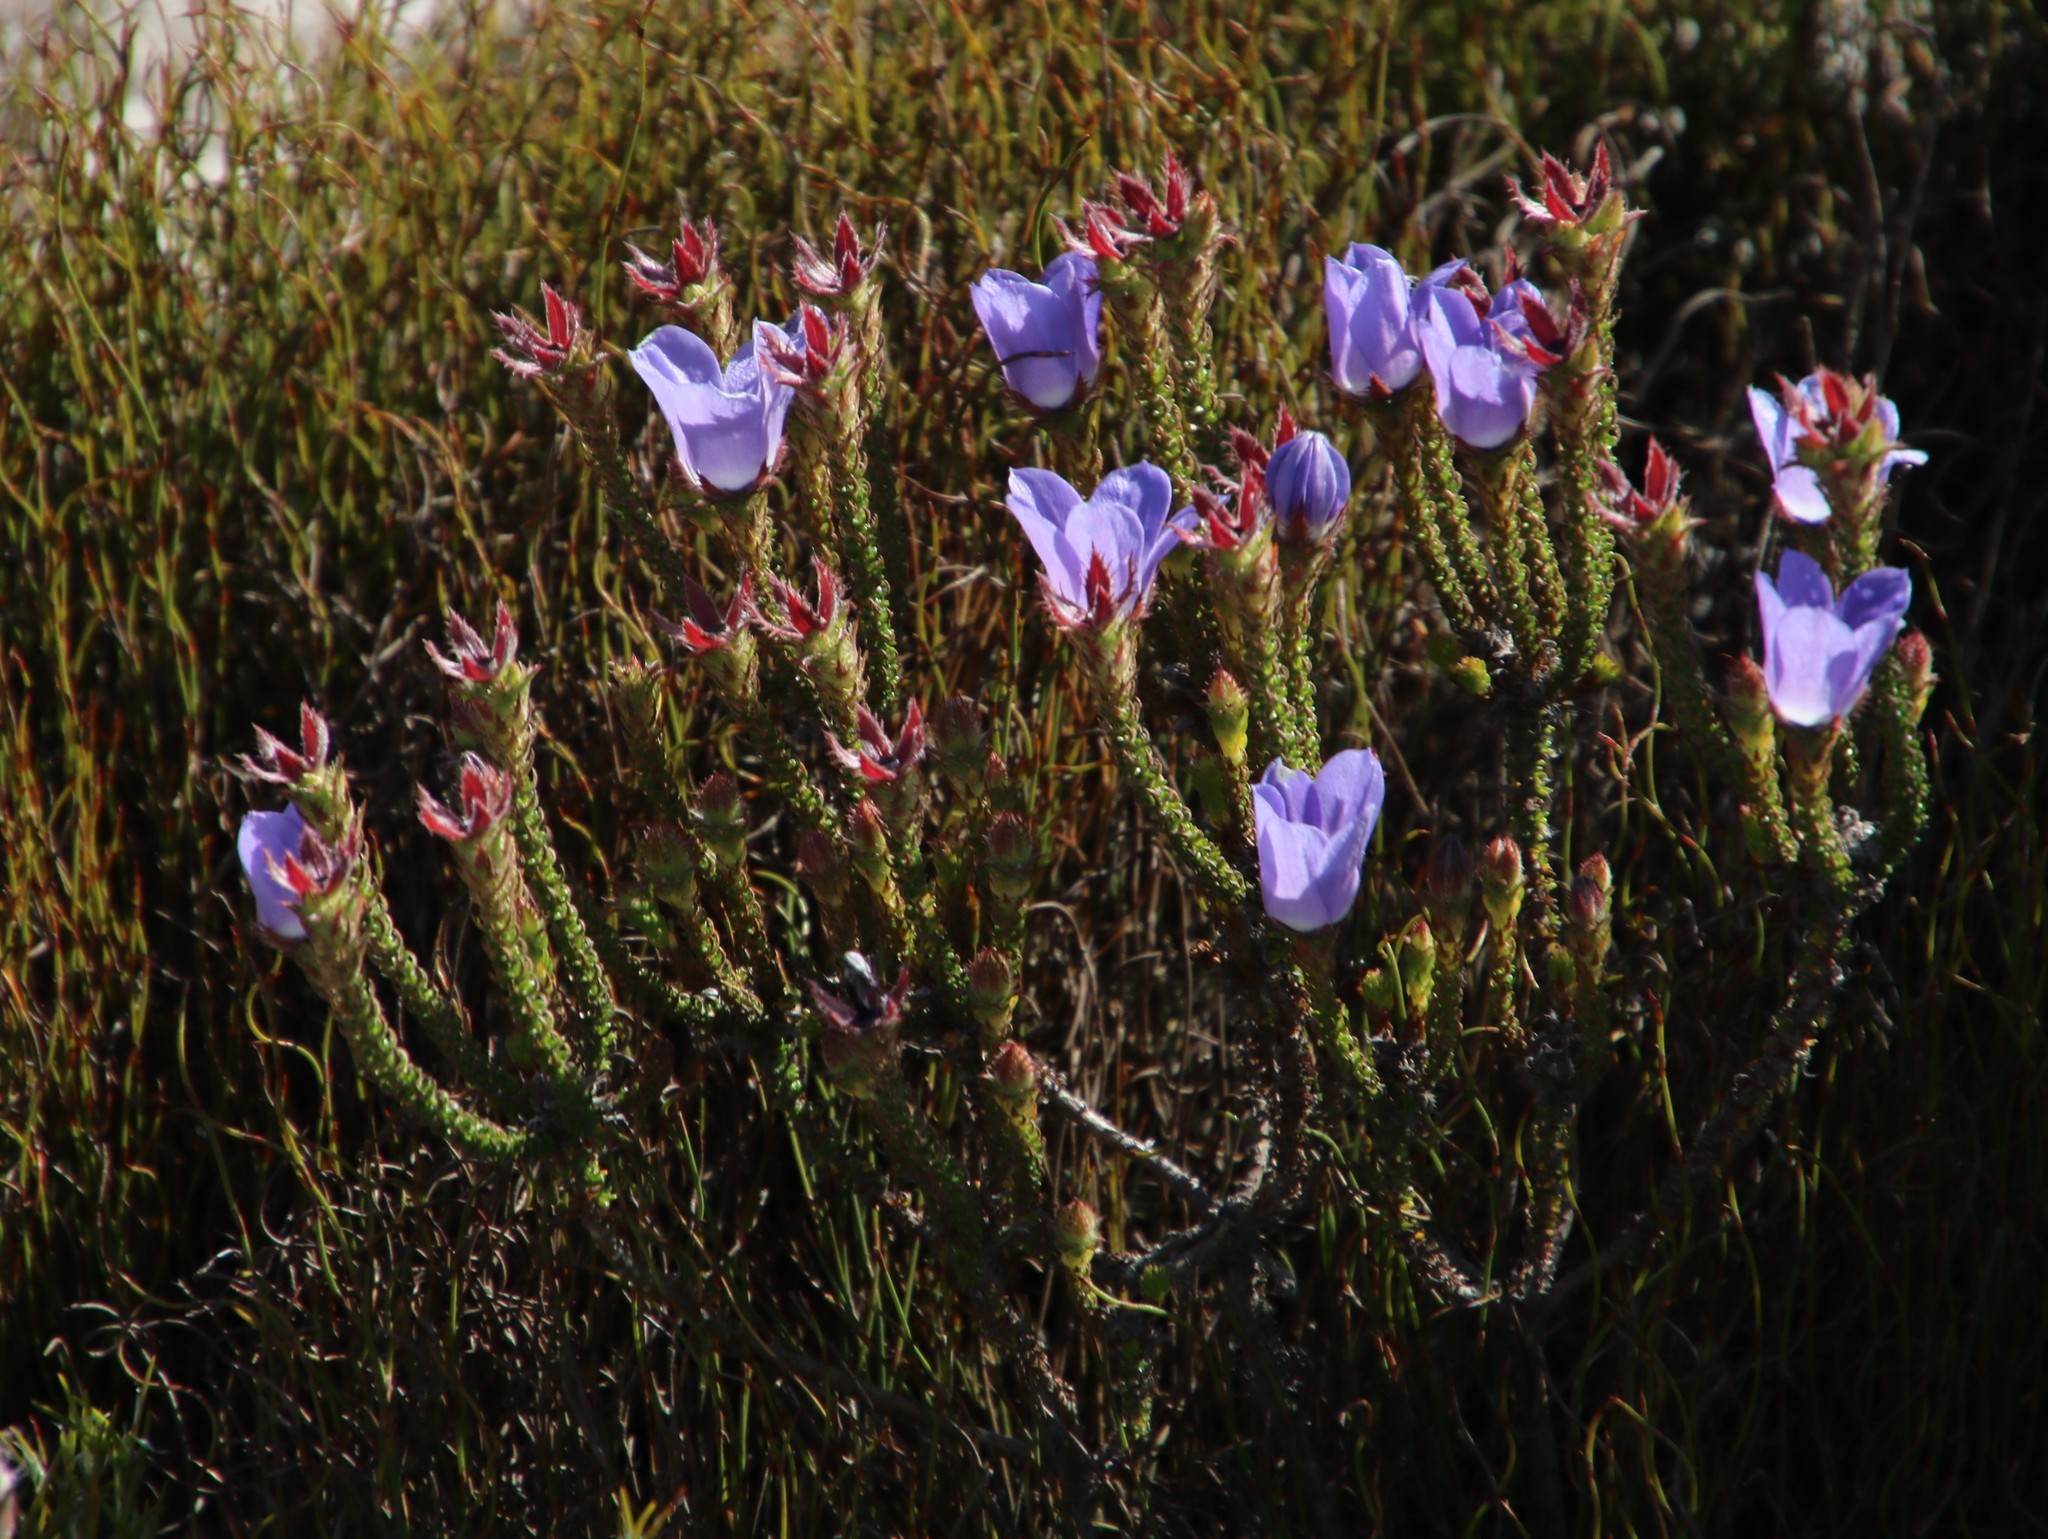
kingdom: Plantae
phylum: Tracheophyta
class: Magnoliopsida
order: Asterales
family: Campanulaceae
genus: Roella
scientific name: Roella triflora
